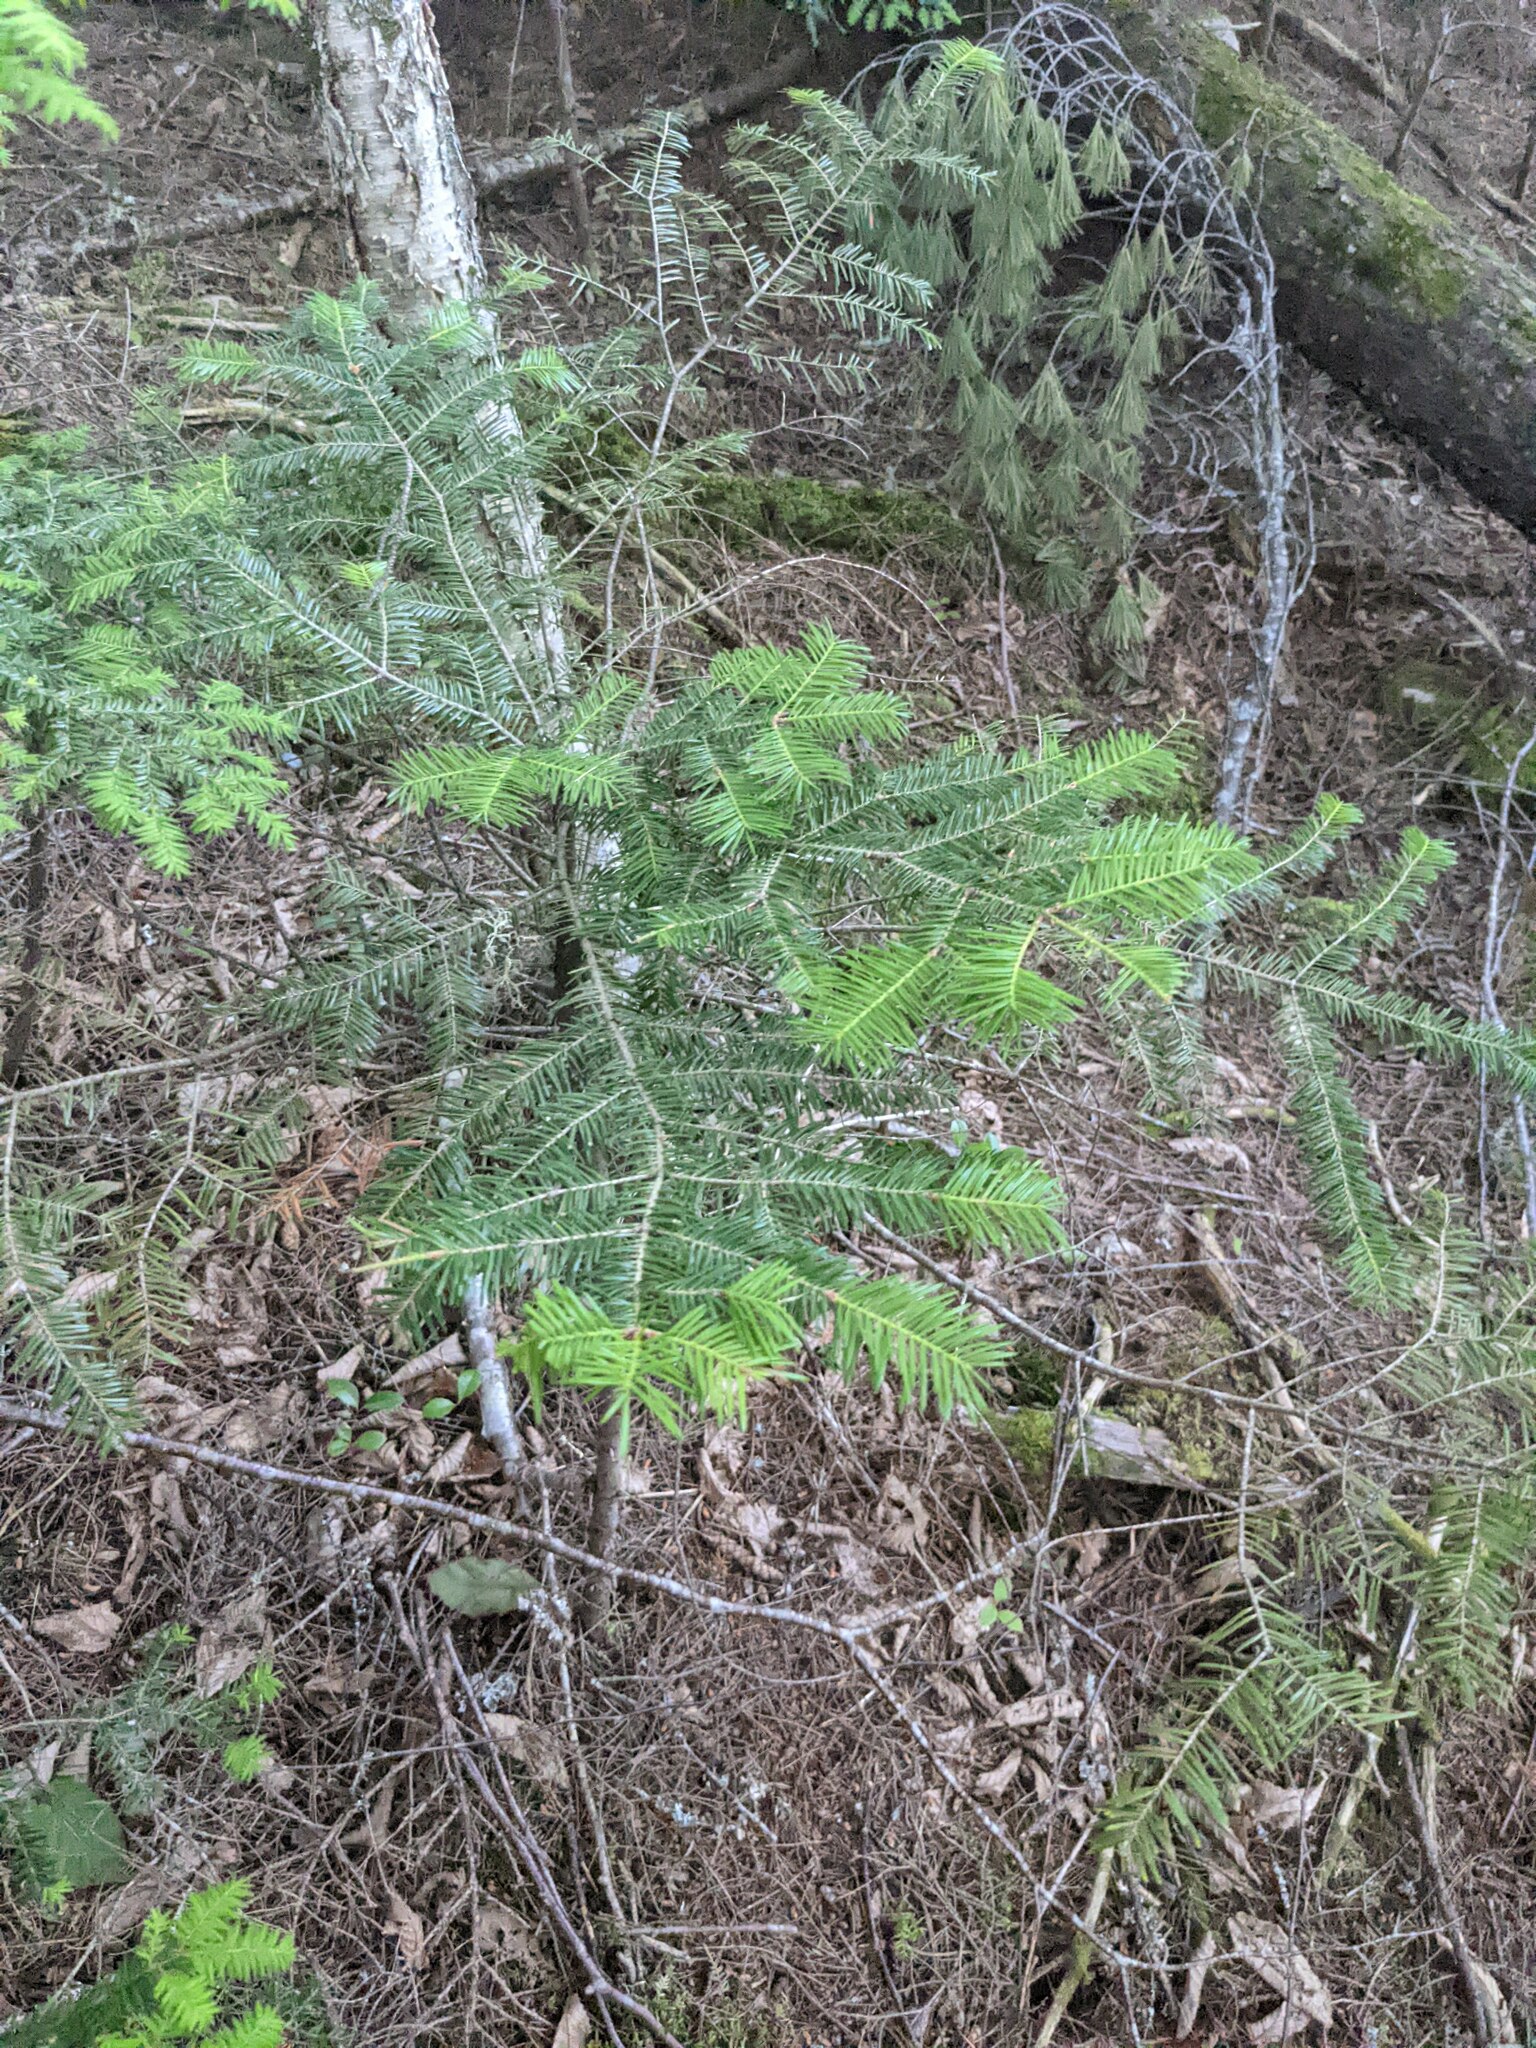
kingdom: Plantae
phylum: Tracheophyta
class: Pinopsida
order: Pinales
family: Pinaceae
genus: Abies
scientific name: Abies balsamea
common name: Balsam fir
